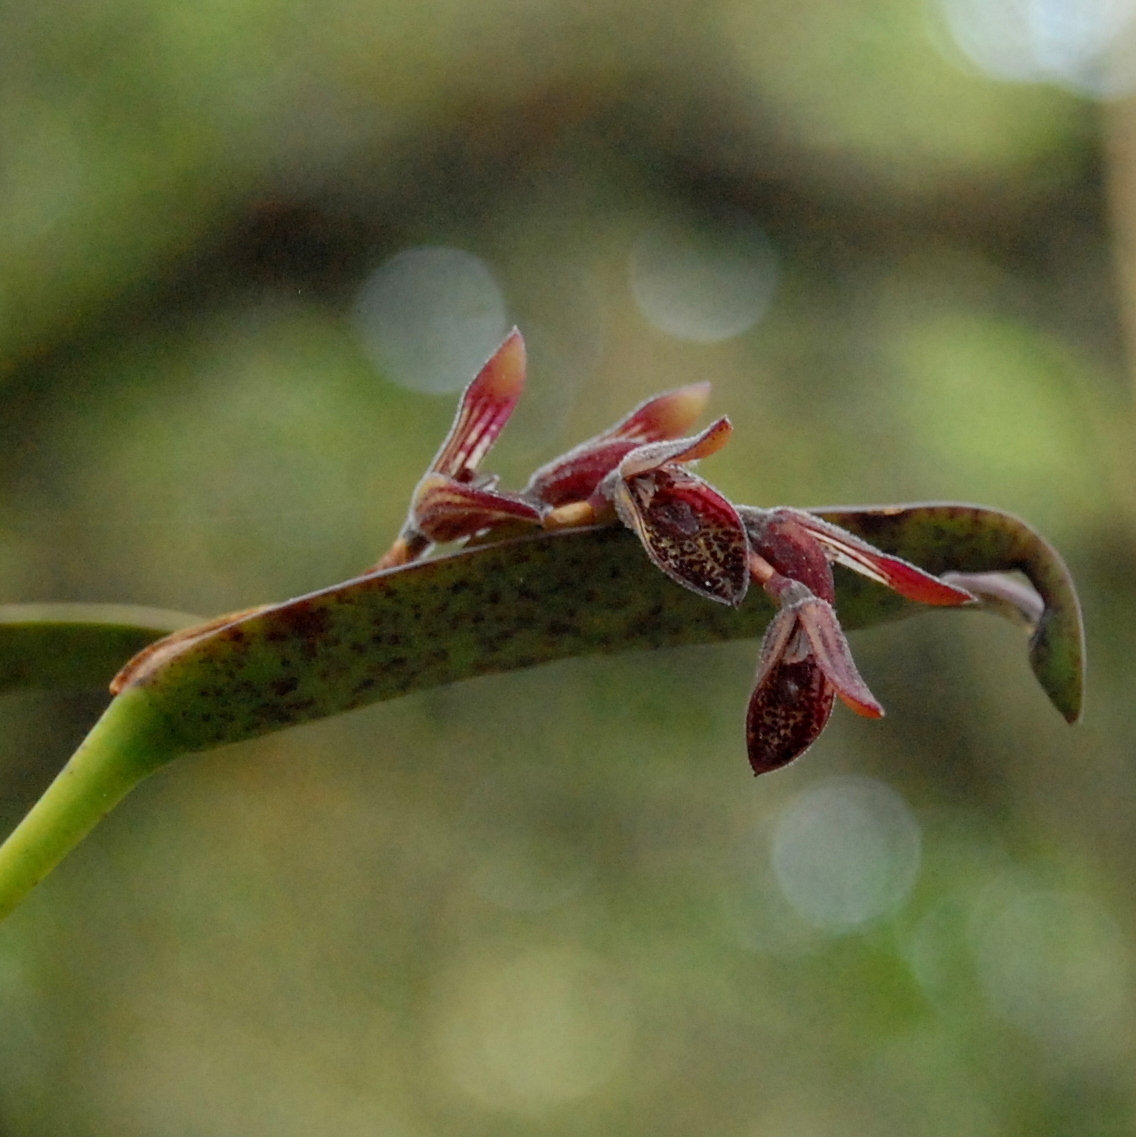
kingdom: Plantae
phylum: Tracheophyta
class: Liliopsida
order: Asparagales
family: Orchidaceae
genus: Acianthera
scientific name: Acianthera pubescens
